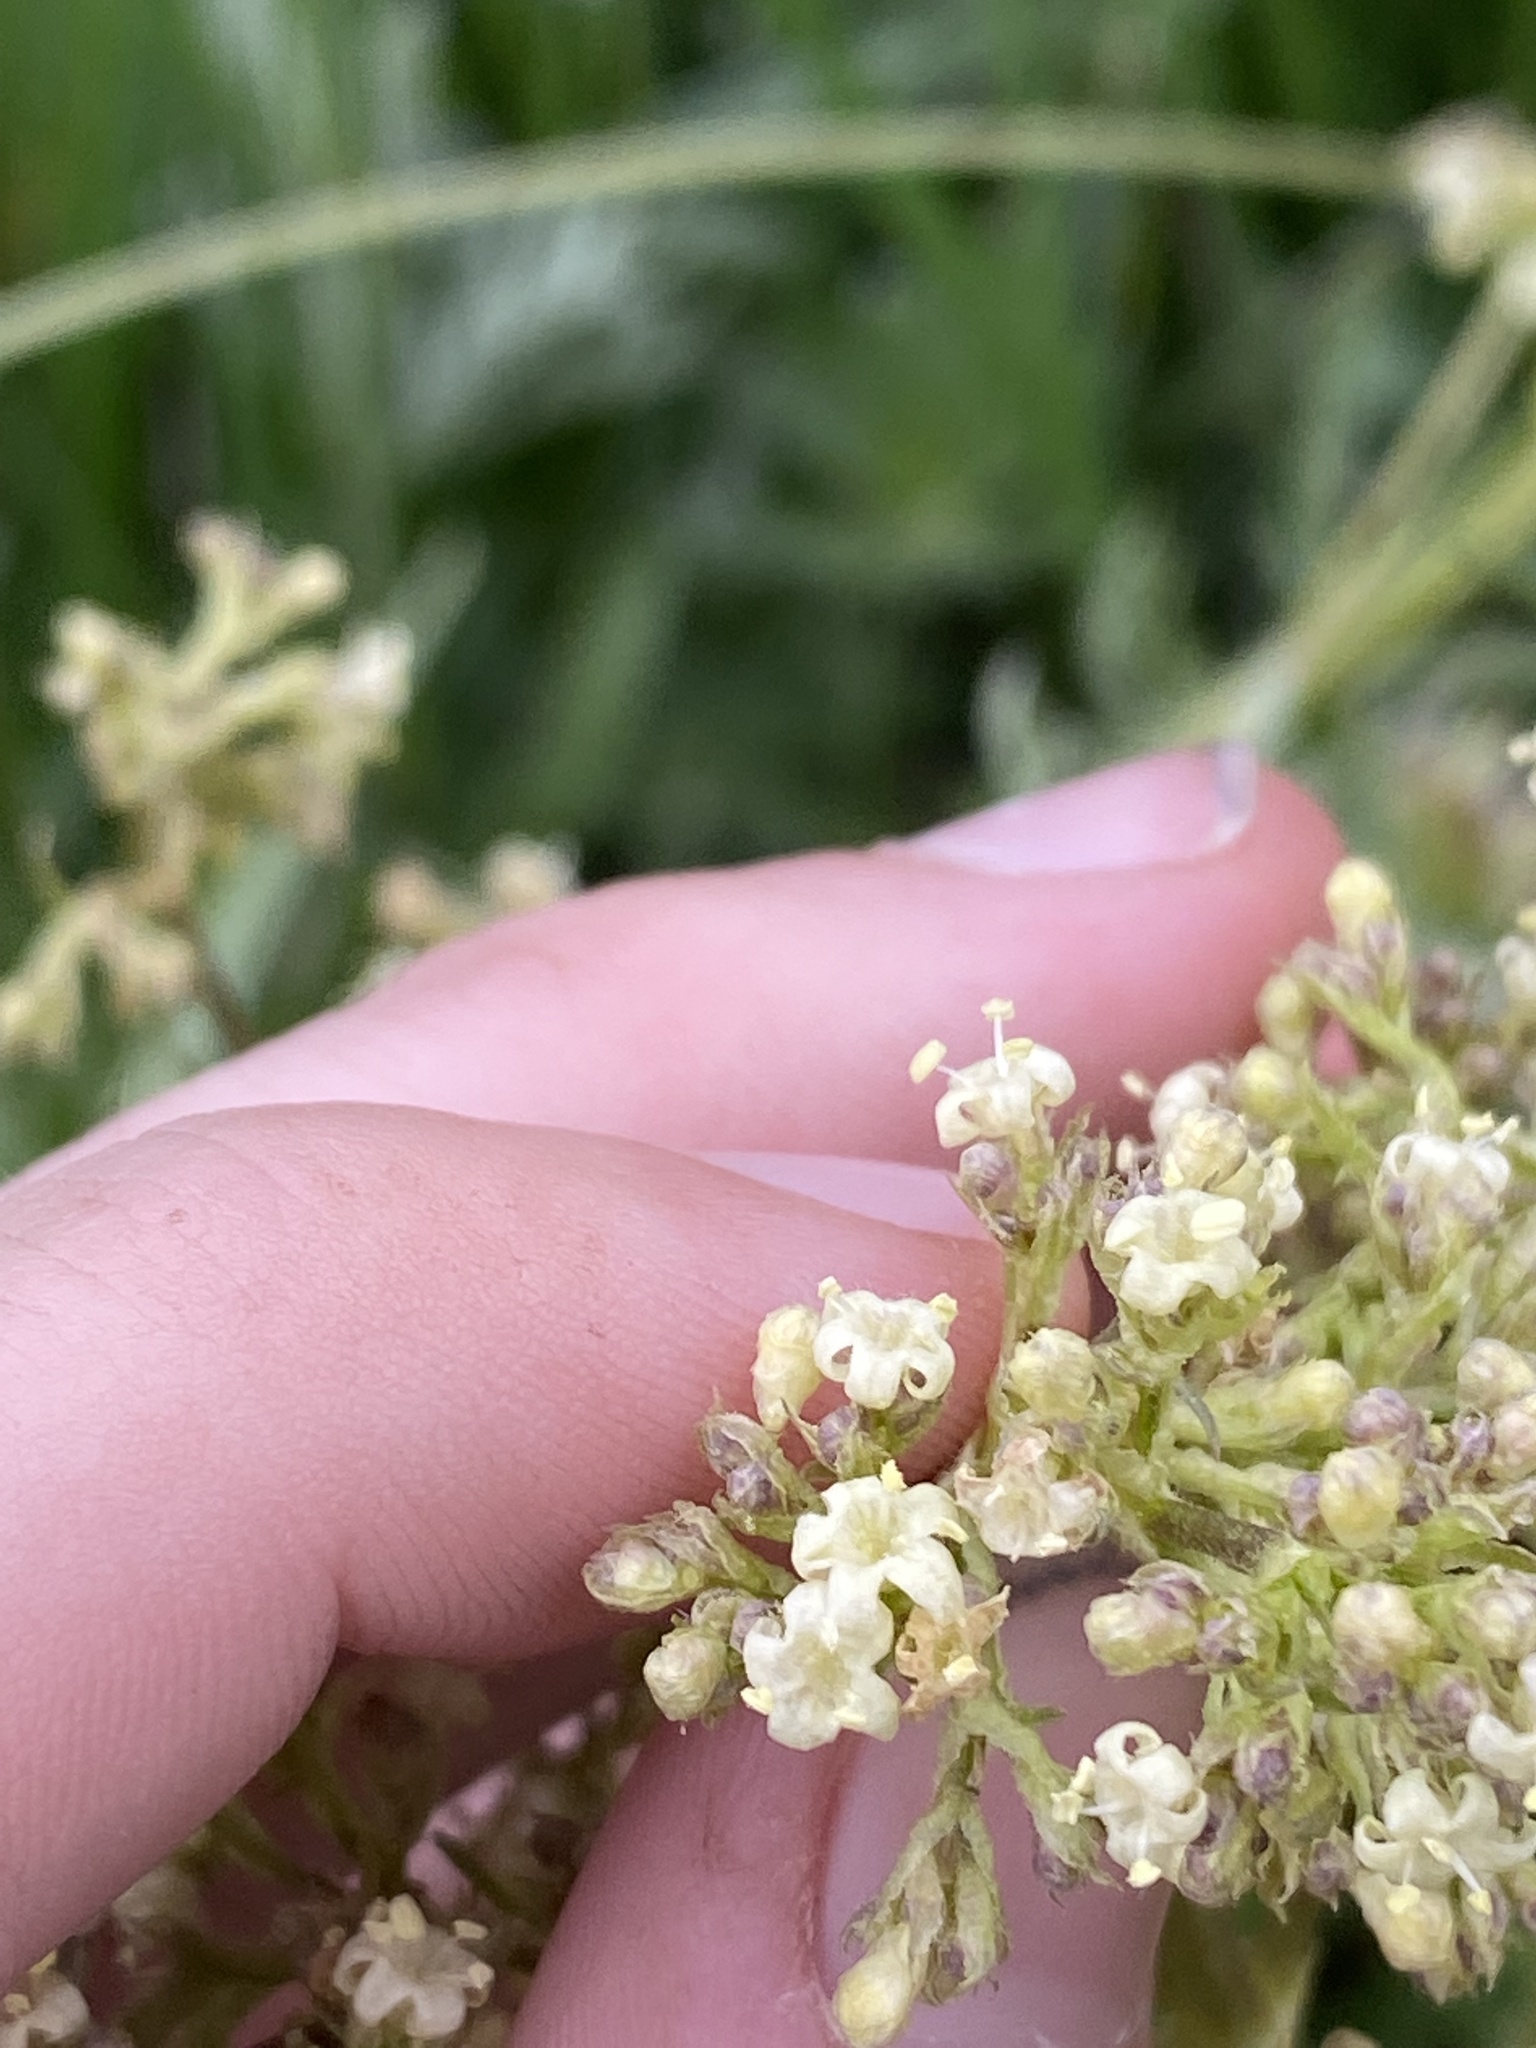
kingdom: Plantae
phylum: Tracheophyta
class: Magnoliopsida
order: Dipsacales
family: Caprifoliaceae
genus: Valeriana
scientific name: Valeriana edulis
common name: Taproot valerian
